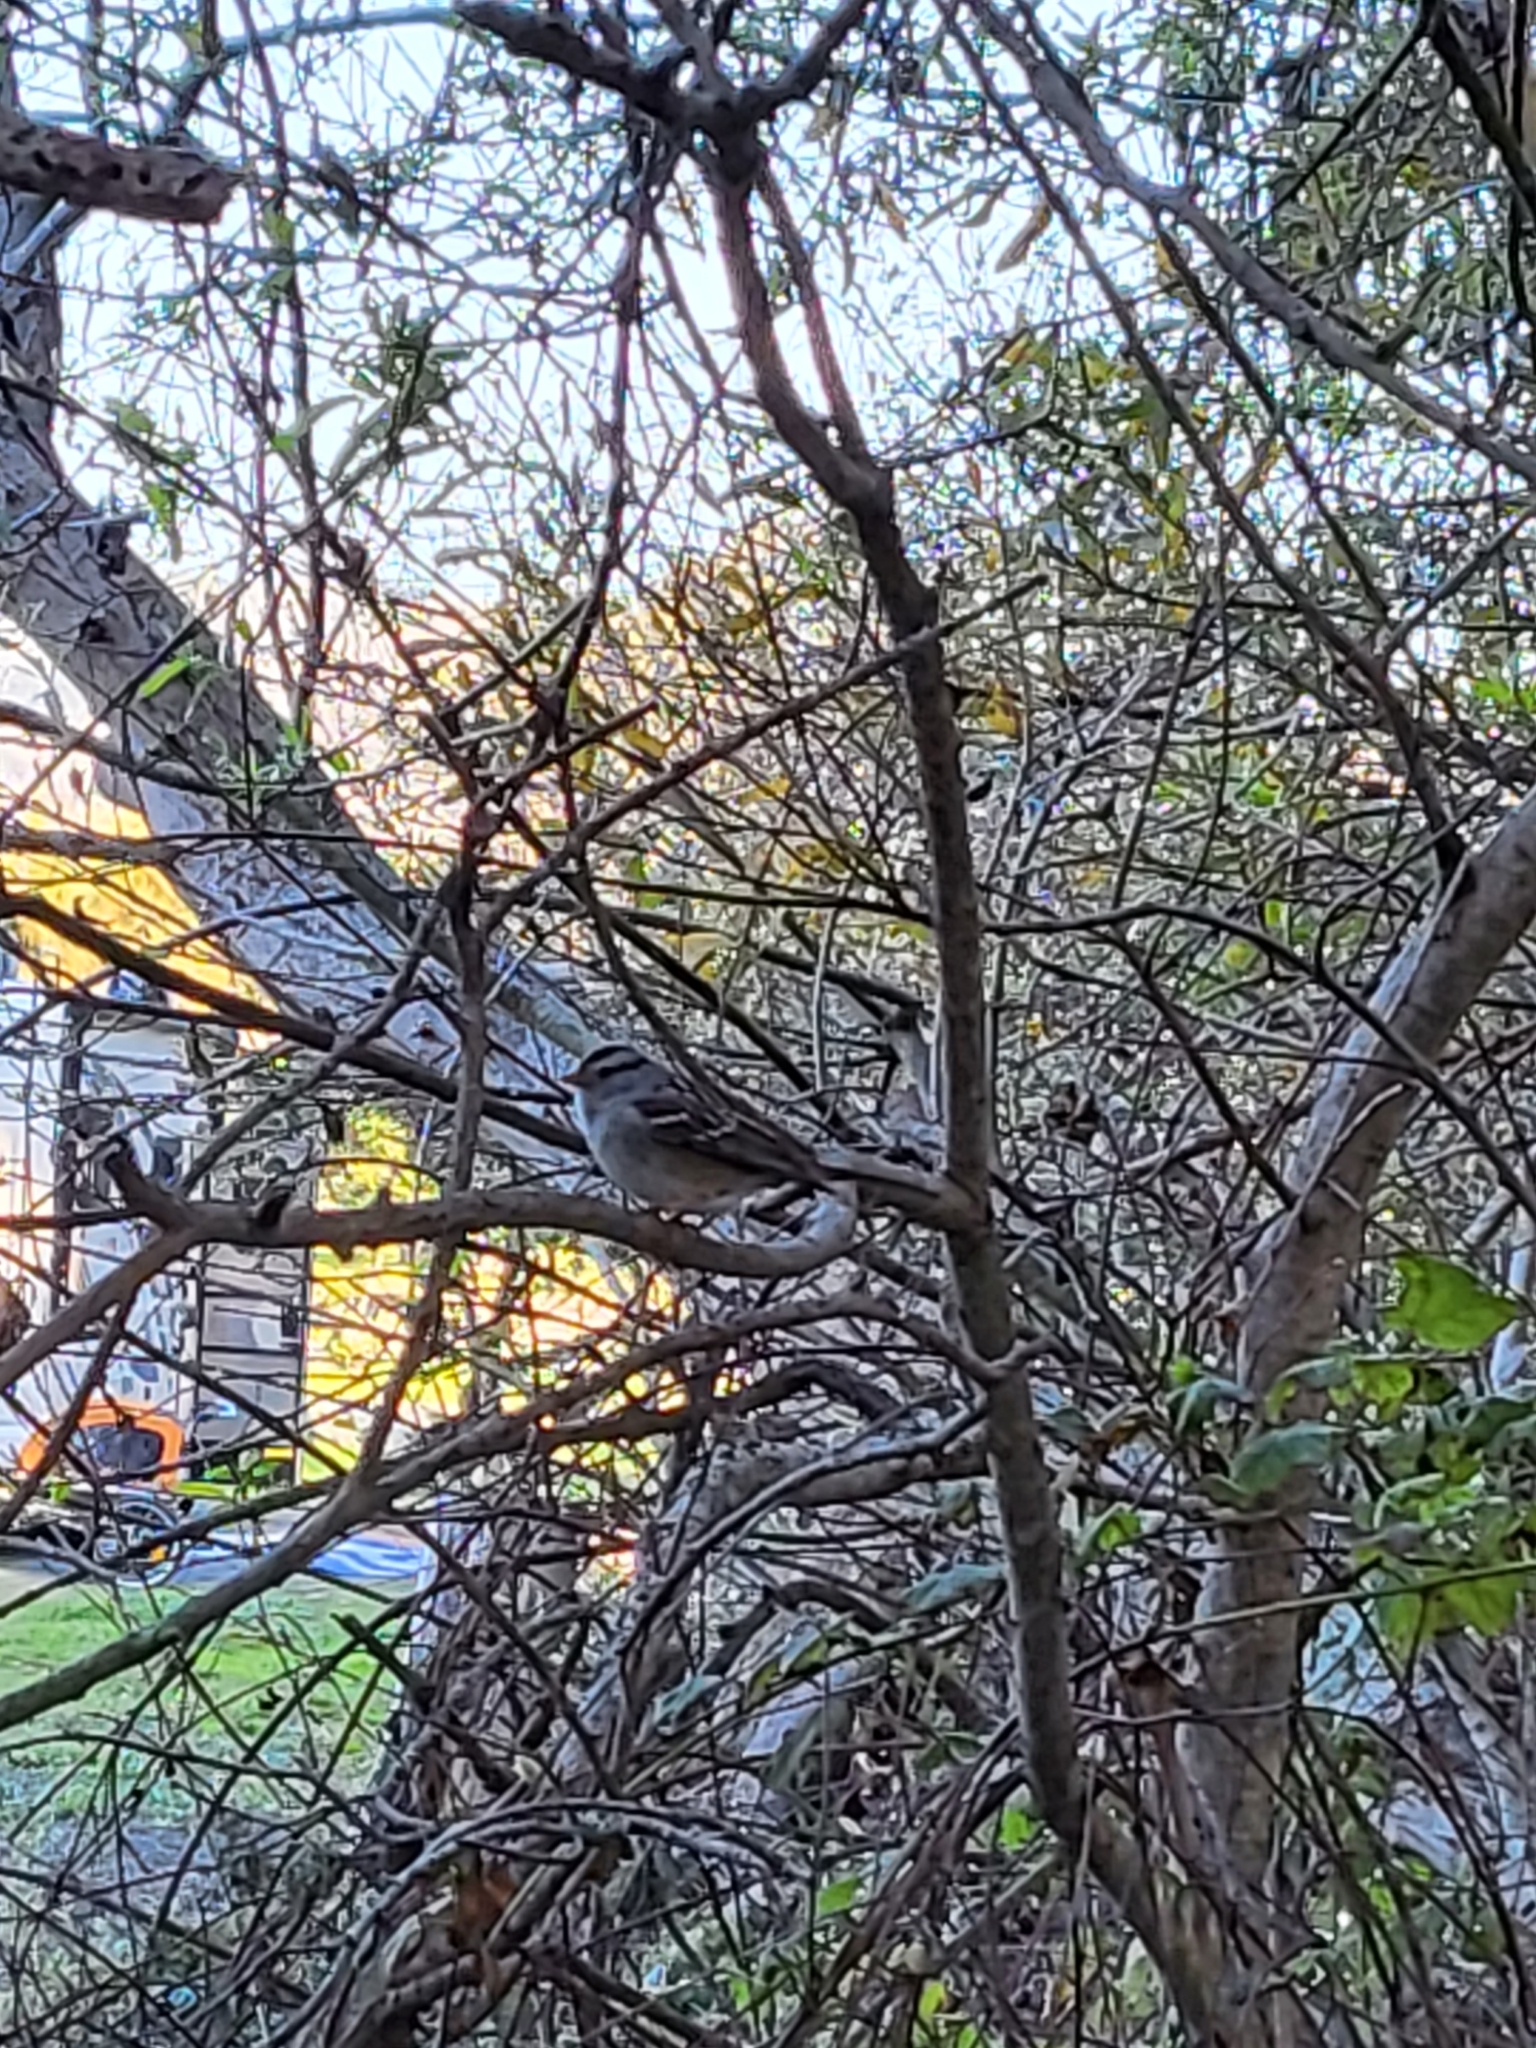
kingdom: Animalia
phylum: Chordata
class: Aves
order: Passeriformes
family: Passerellidae
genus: Zonotrichia
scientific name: Zonotrichia leucophrys
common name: White-crowned sparrow
